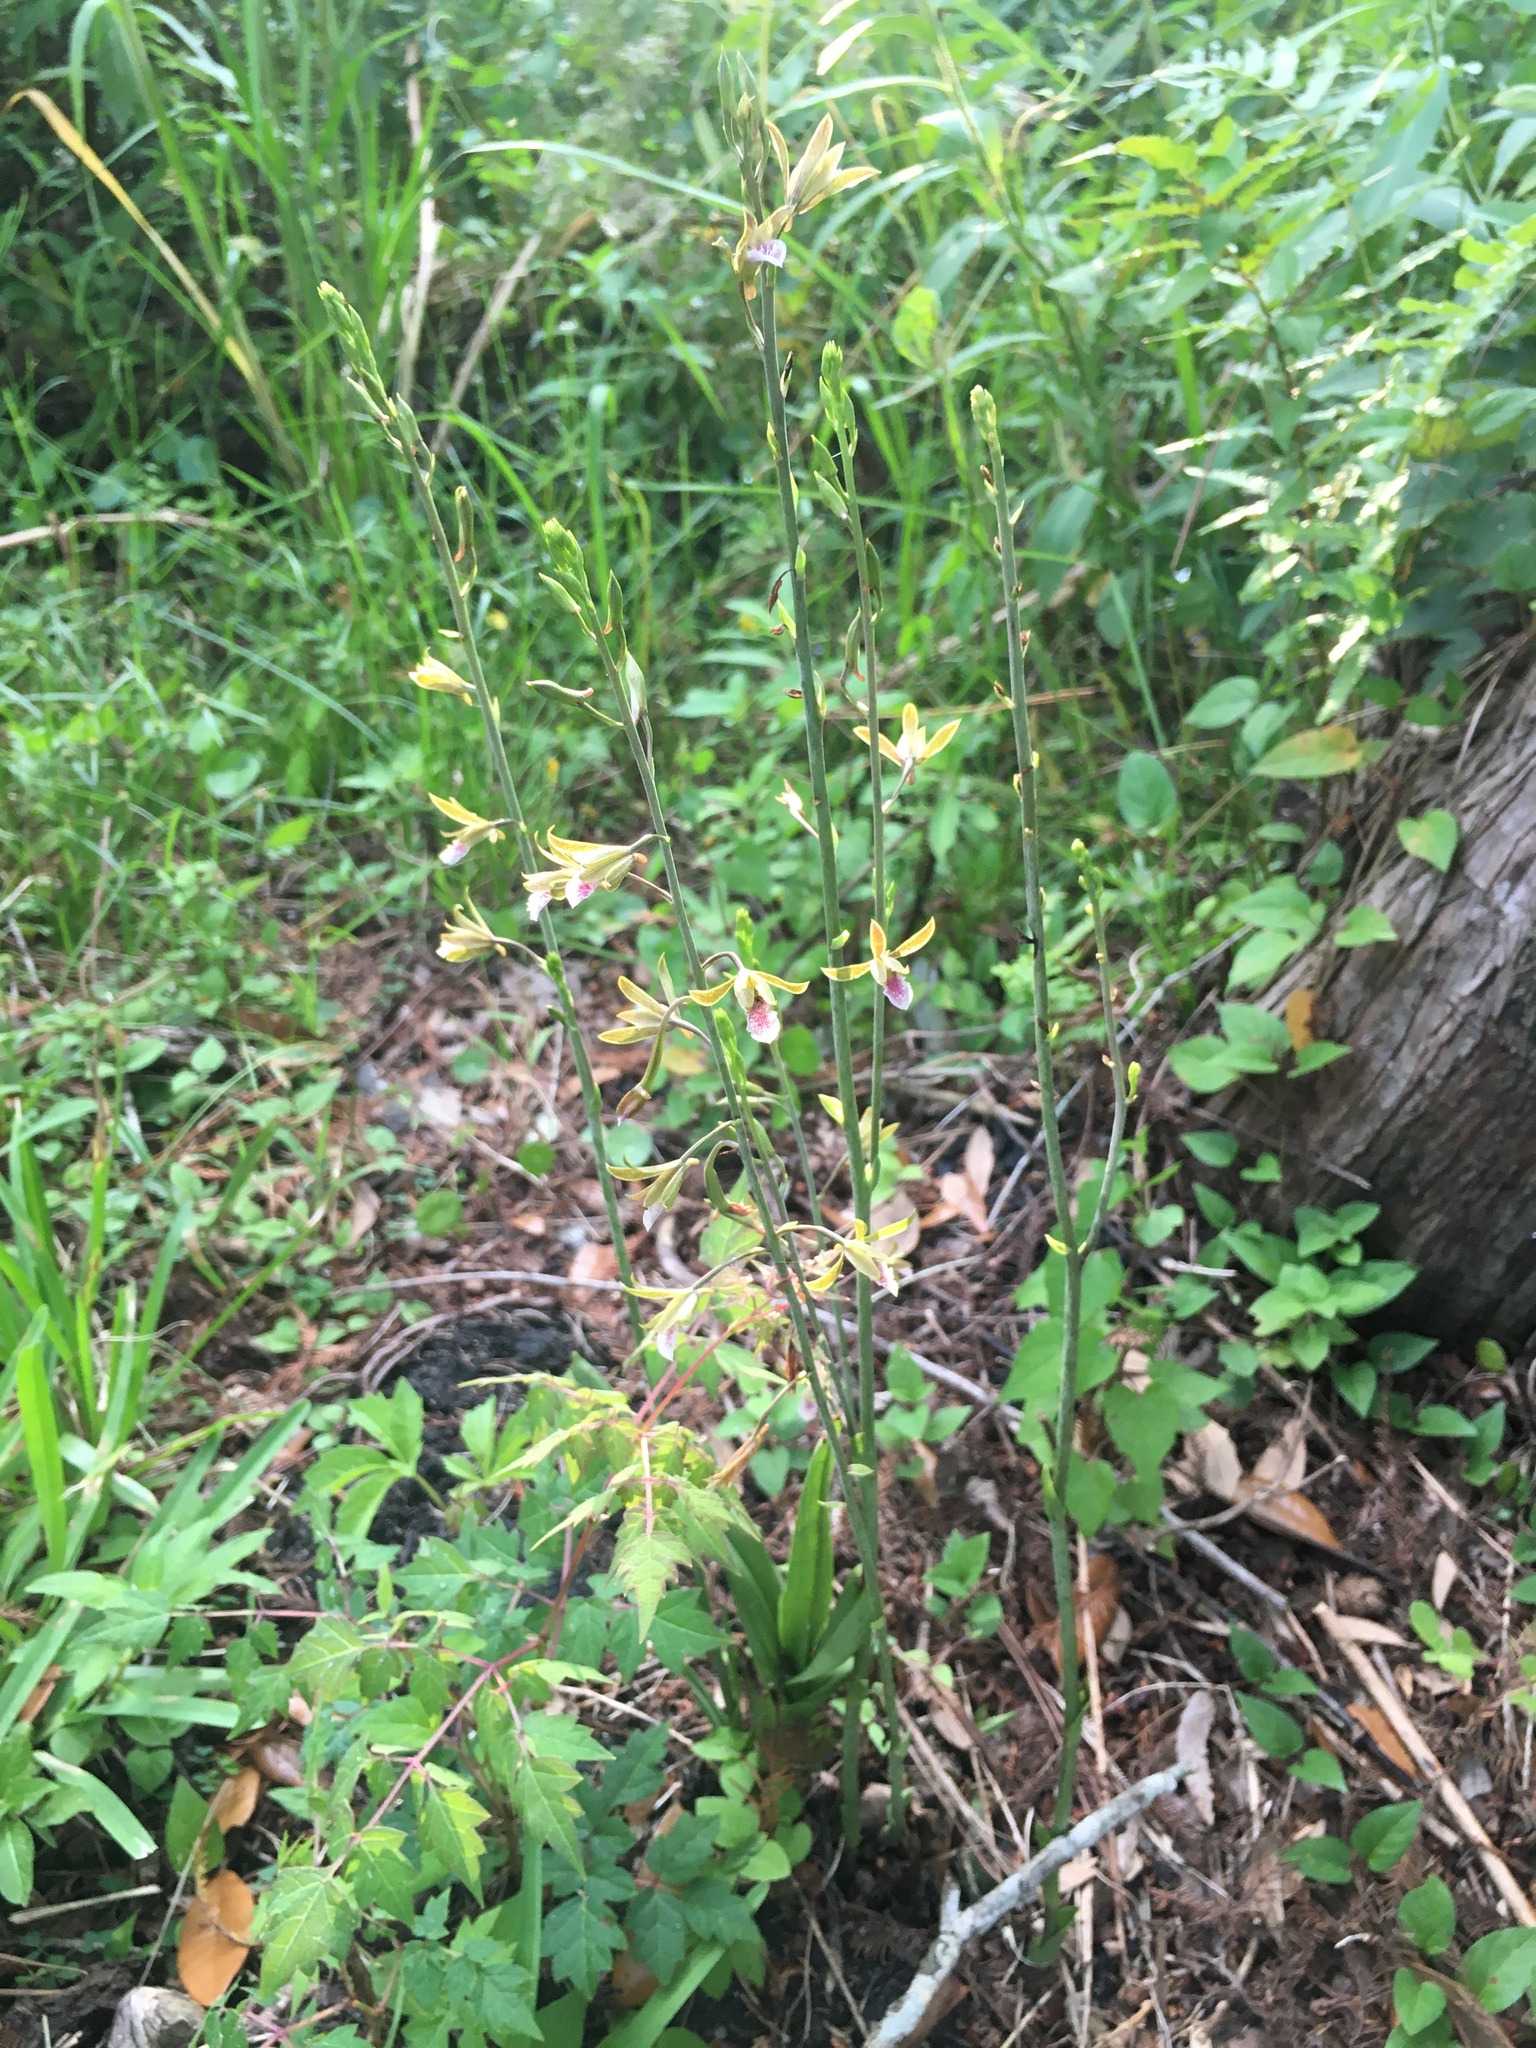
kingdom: Plantae
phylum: Tracheophyta
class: Liliopsida
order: Asparagales
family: Orchidaceae
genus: Eulophia
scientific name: Eulophia graminea
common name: Orchid
